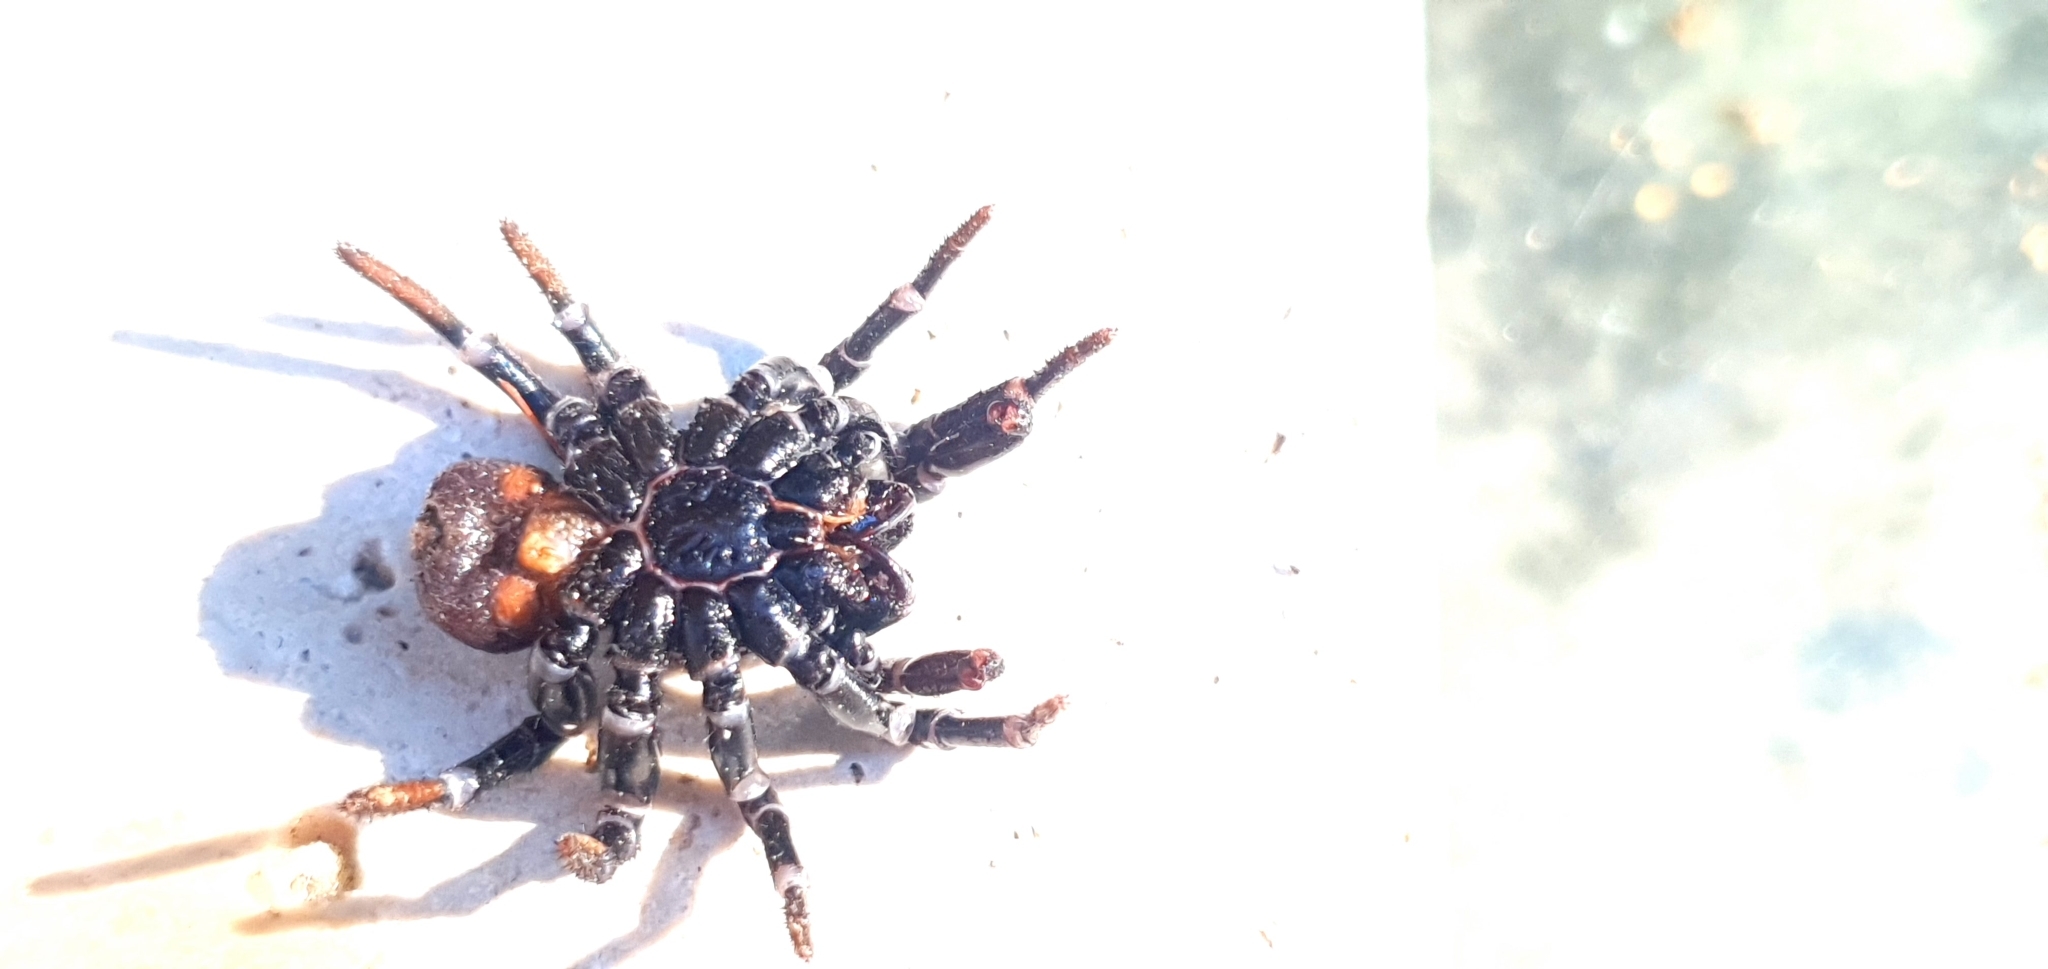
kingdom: Animalia
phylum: Arthropoda
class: Arachnida
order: Araneae
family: Actinopodidae
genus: Missulena
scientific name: Missulena bradleyi
